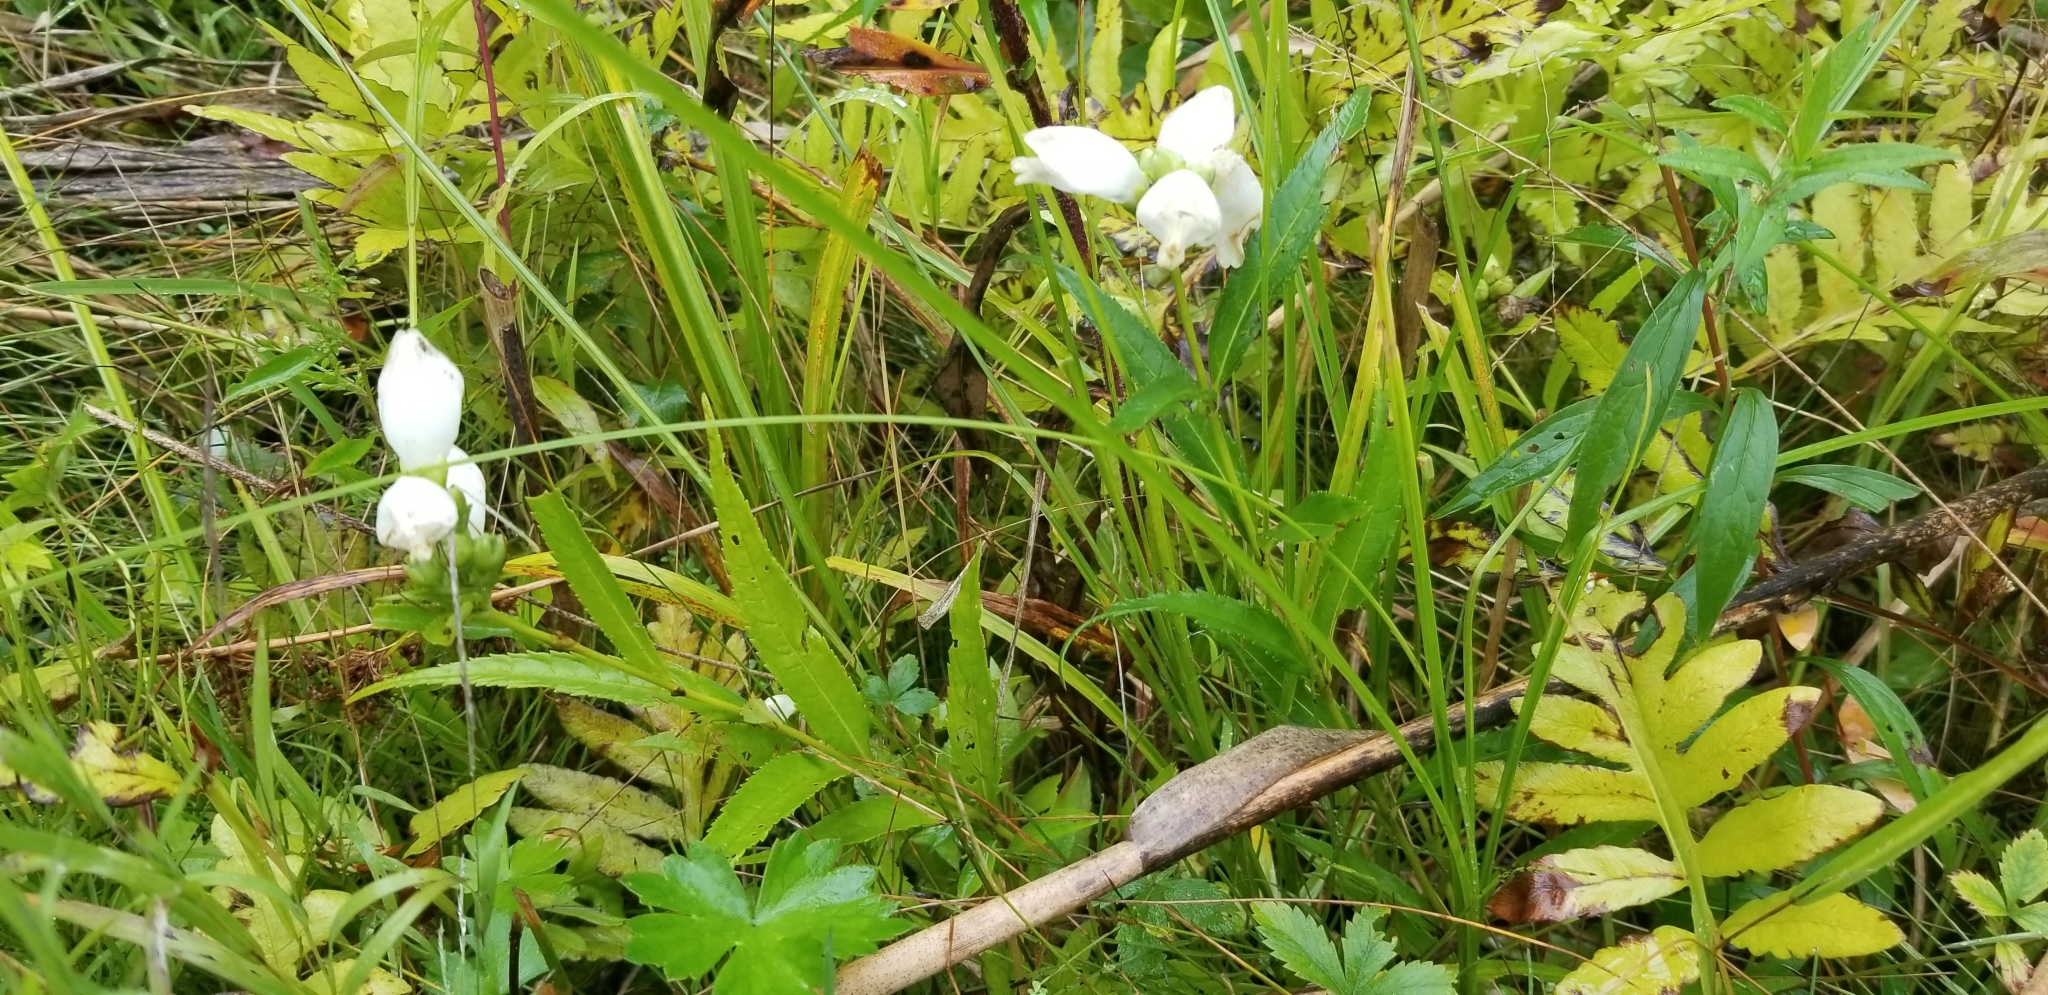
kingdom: Plantae
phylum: Tracheophyta
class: Magnoliopsida
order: Lamiales
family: Plantaginaceae
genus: Chelone
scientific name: Chelone glabra
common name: Snakehead
